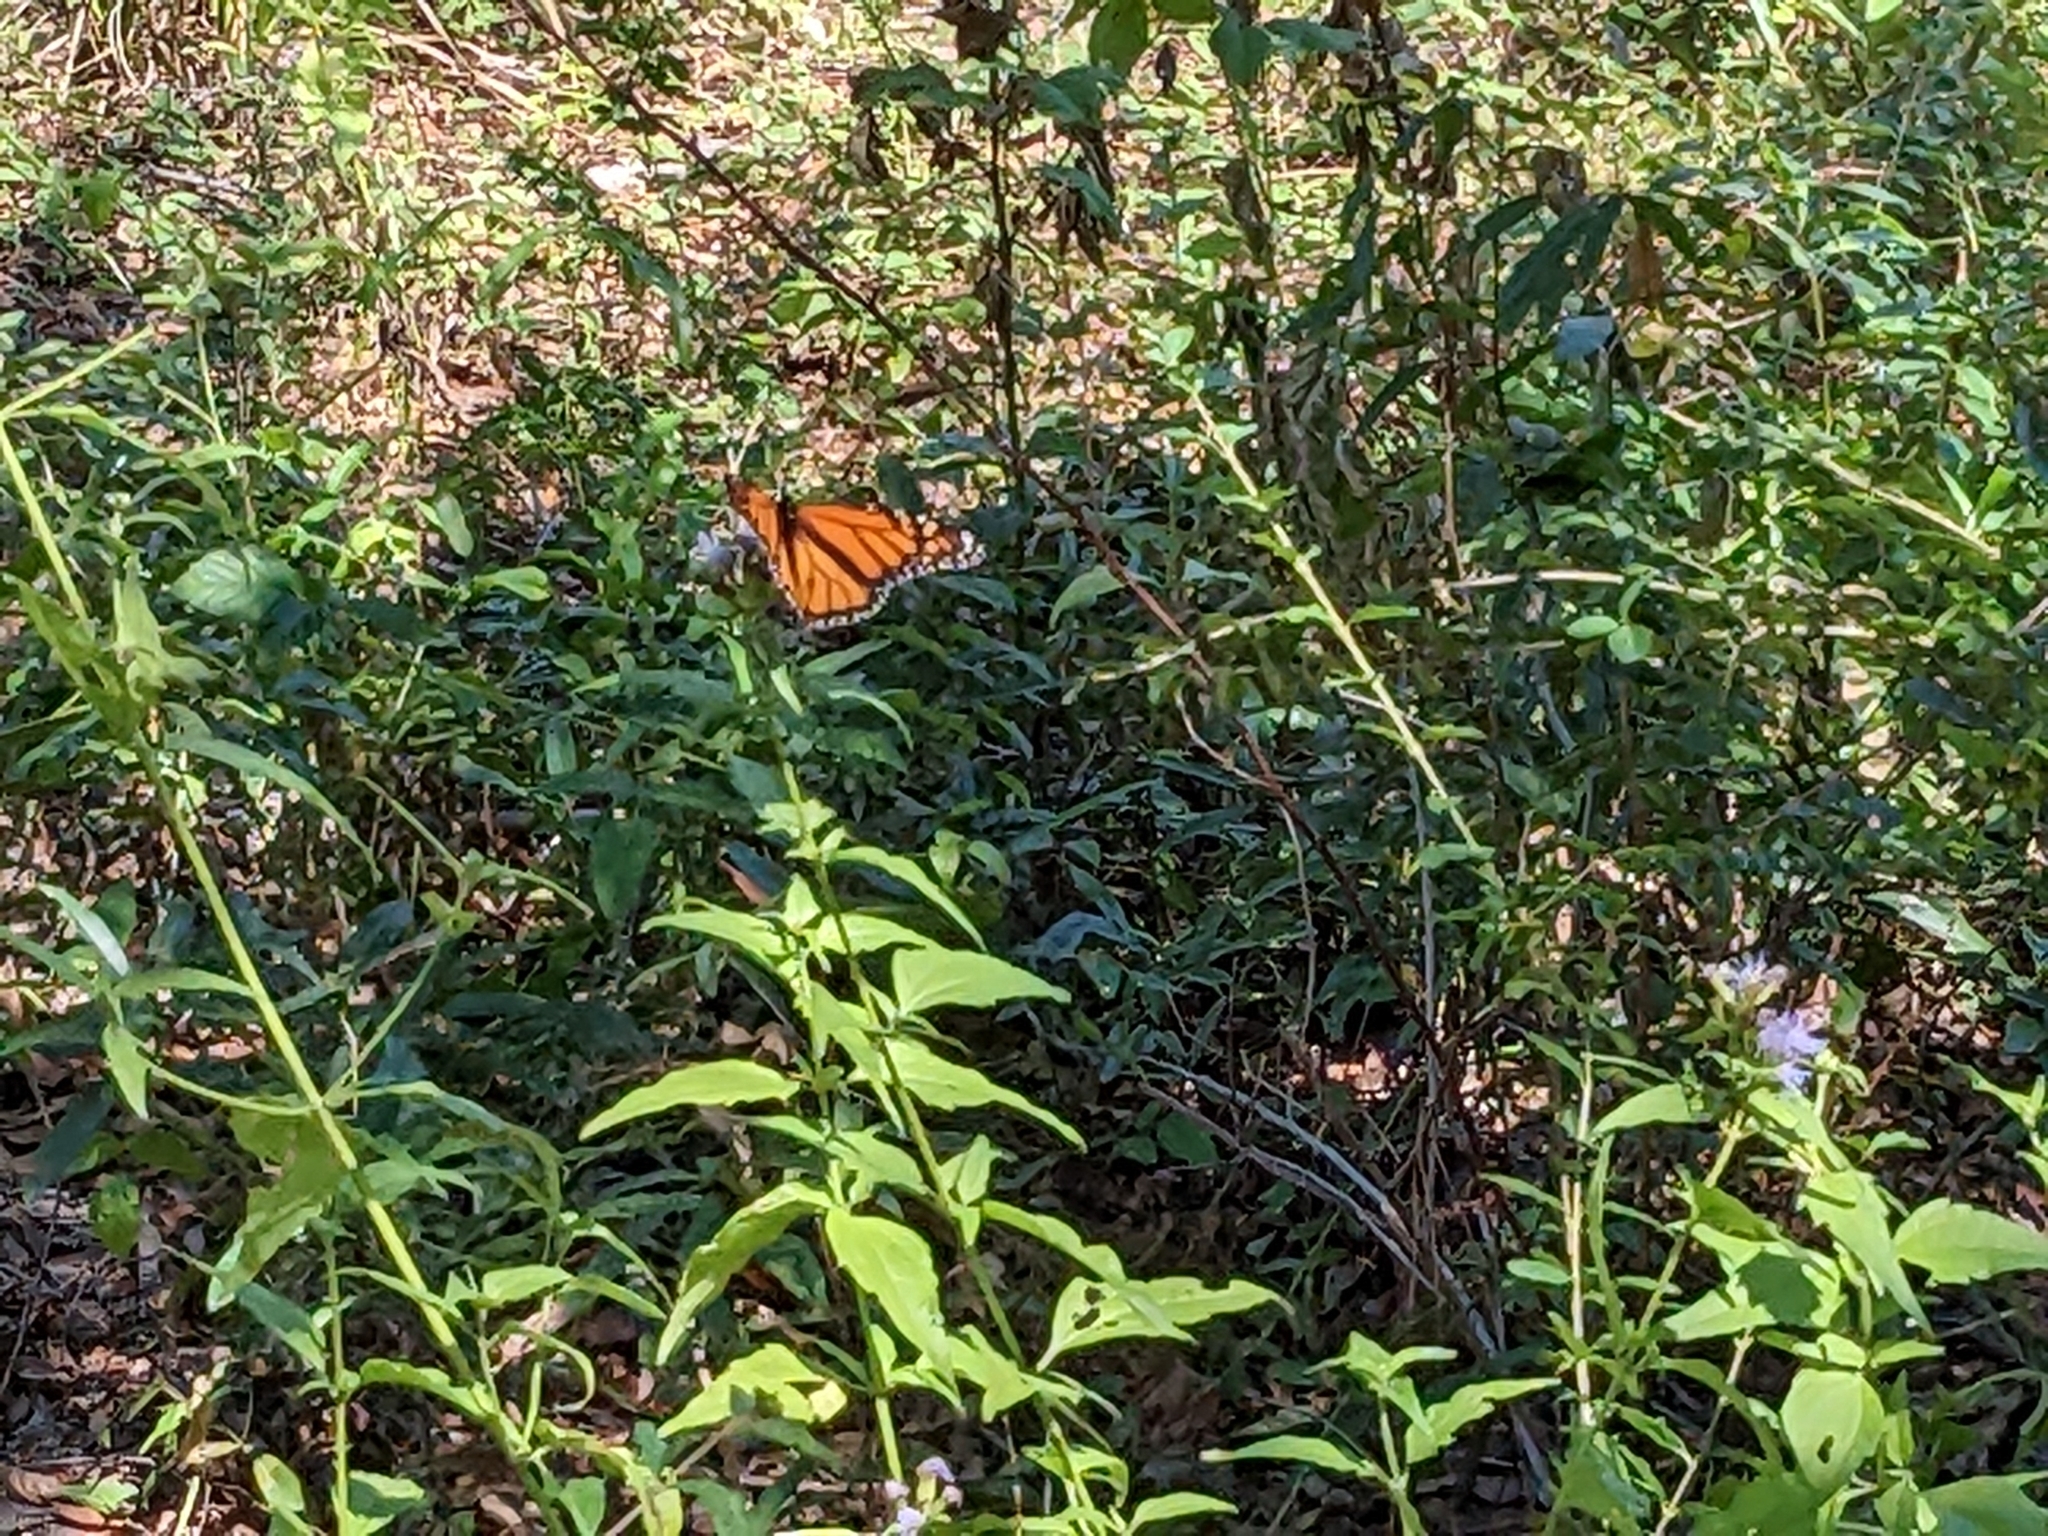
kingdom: Animalia
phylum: Arthropoda
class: Insecta
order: Lepidoptera
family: Nymphalidae
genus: Danaus
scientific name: Danaus plexippus
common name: Monarch
